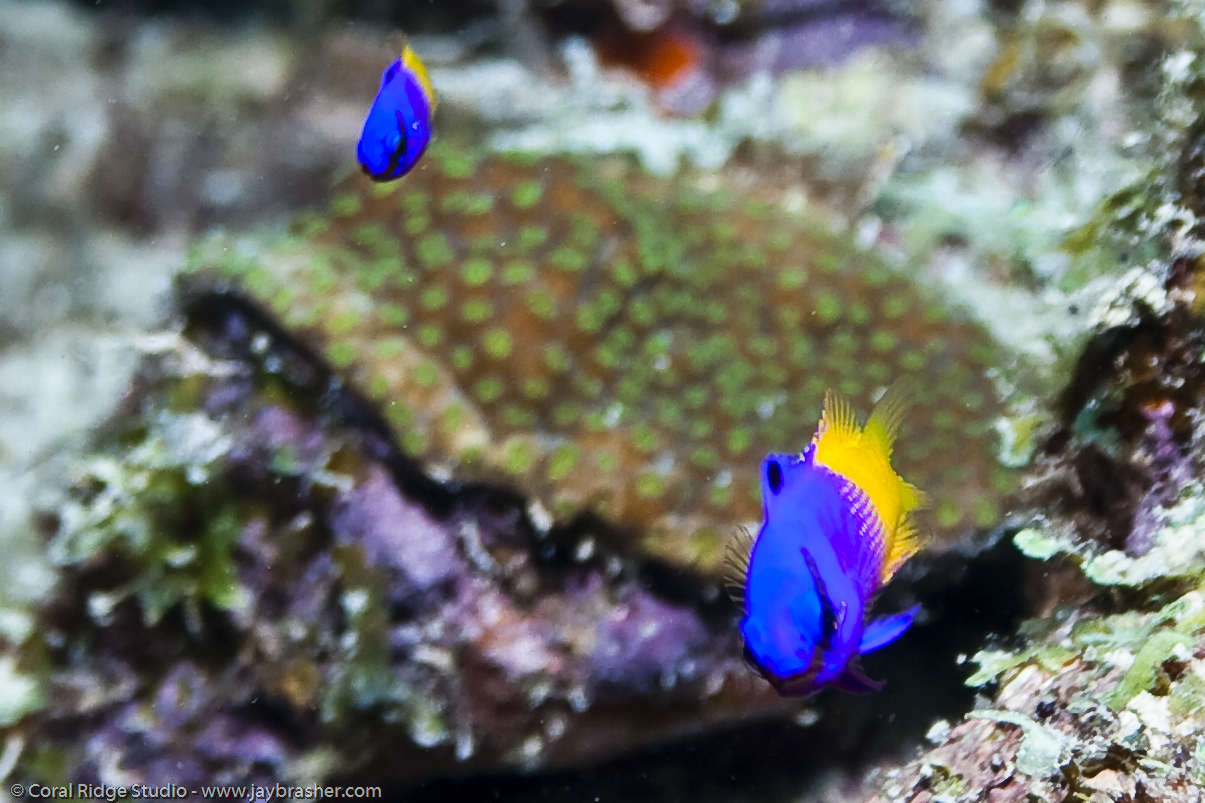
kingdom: Animalia
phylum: Chordata
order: Perciformes
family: Grammatidae
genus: Gramma
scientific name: Gramma loreto
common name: Fairy basslet
